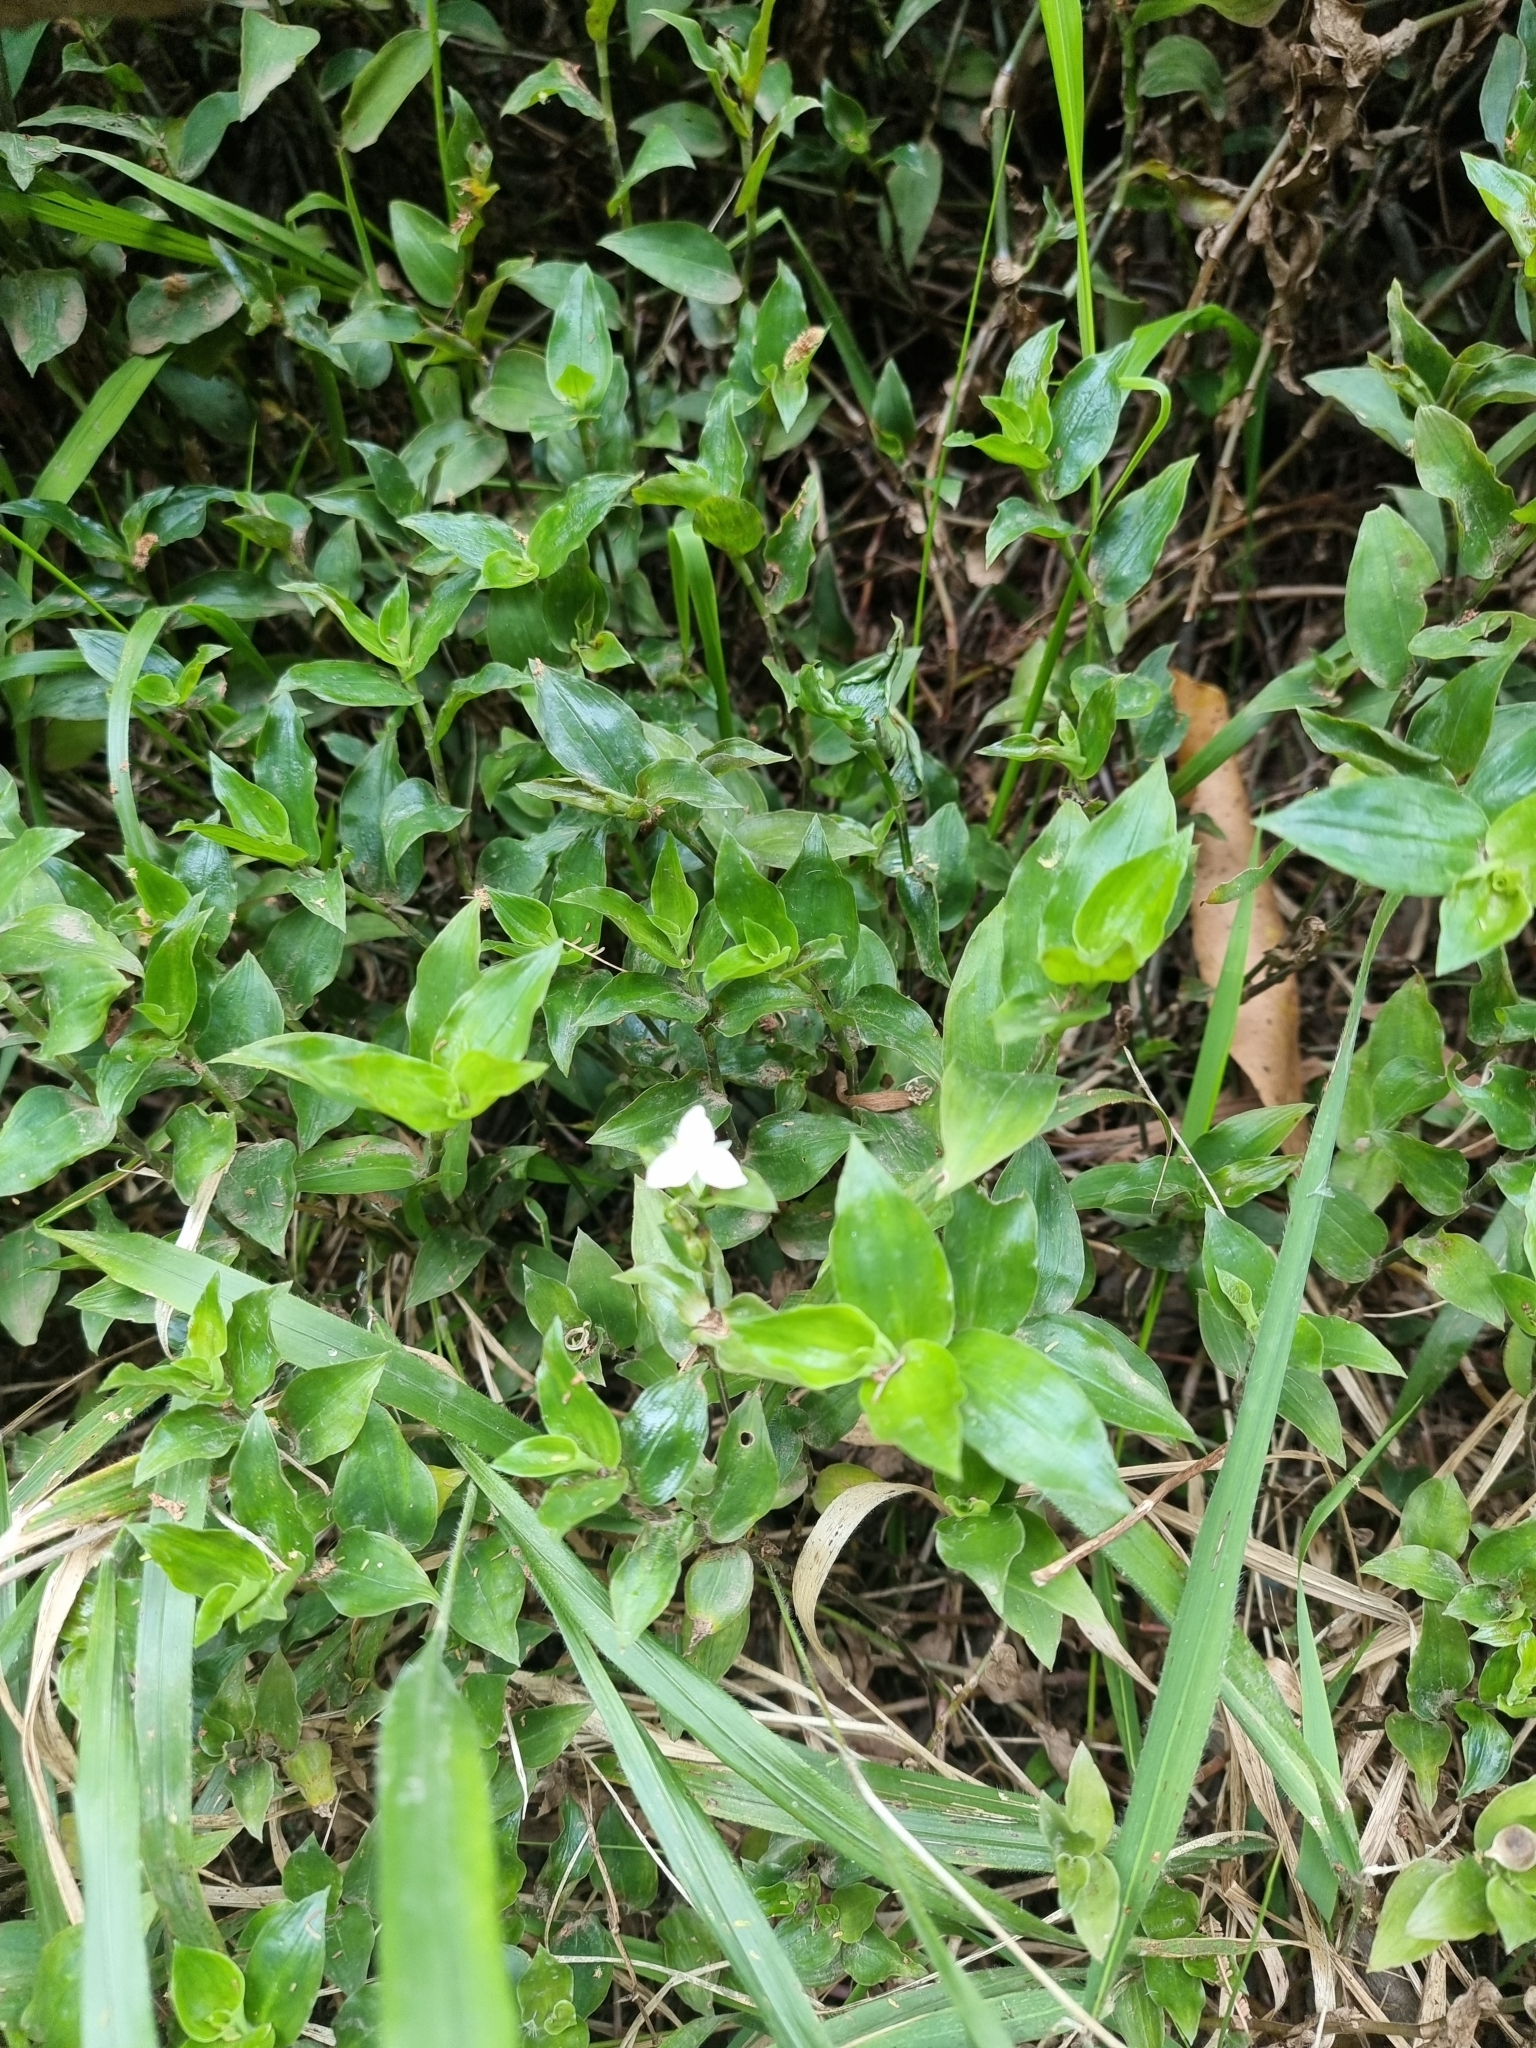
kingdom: Plantae
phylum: Tracheophyta
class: Liliopsida
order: Commelinales
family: Commelinaceae
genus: Tradescantia
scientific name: Tradescantia fluminensis
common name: Wandering-jew
